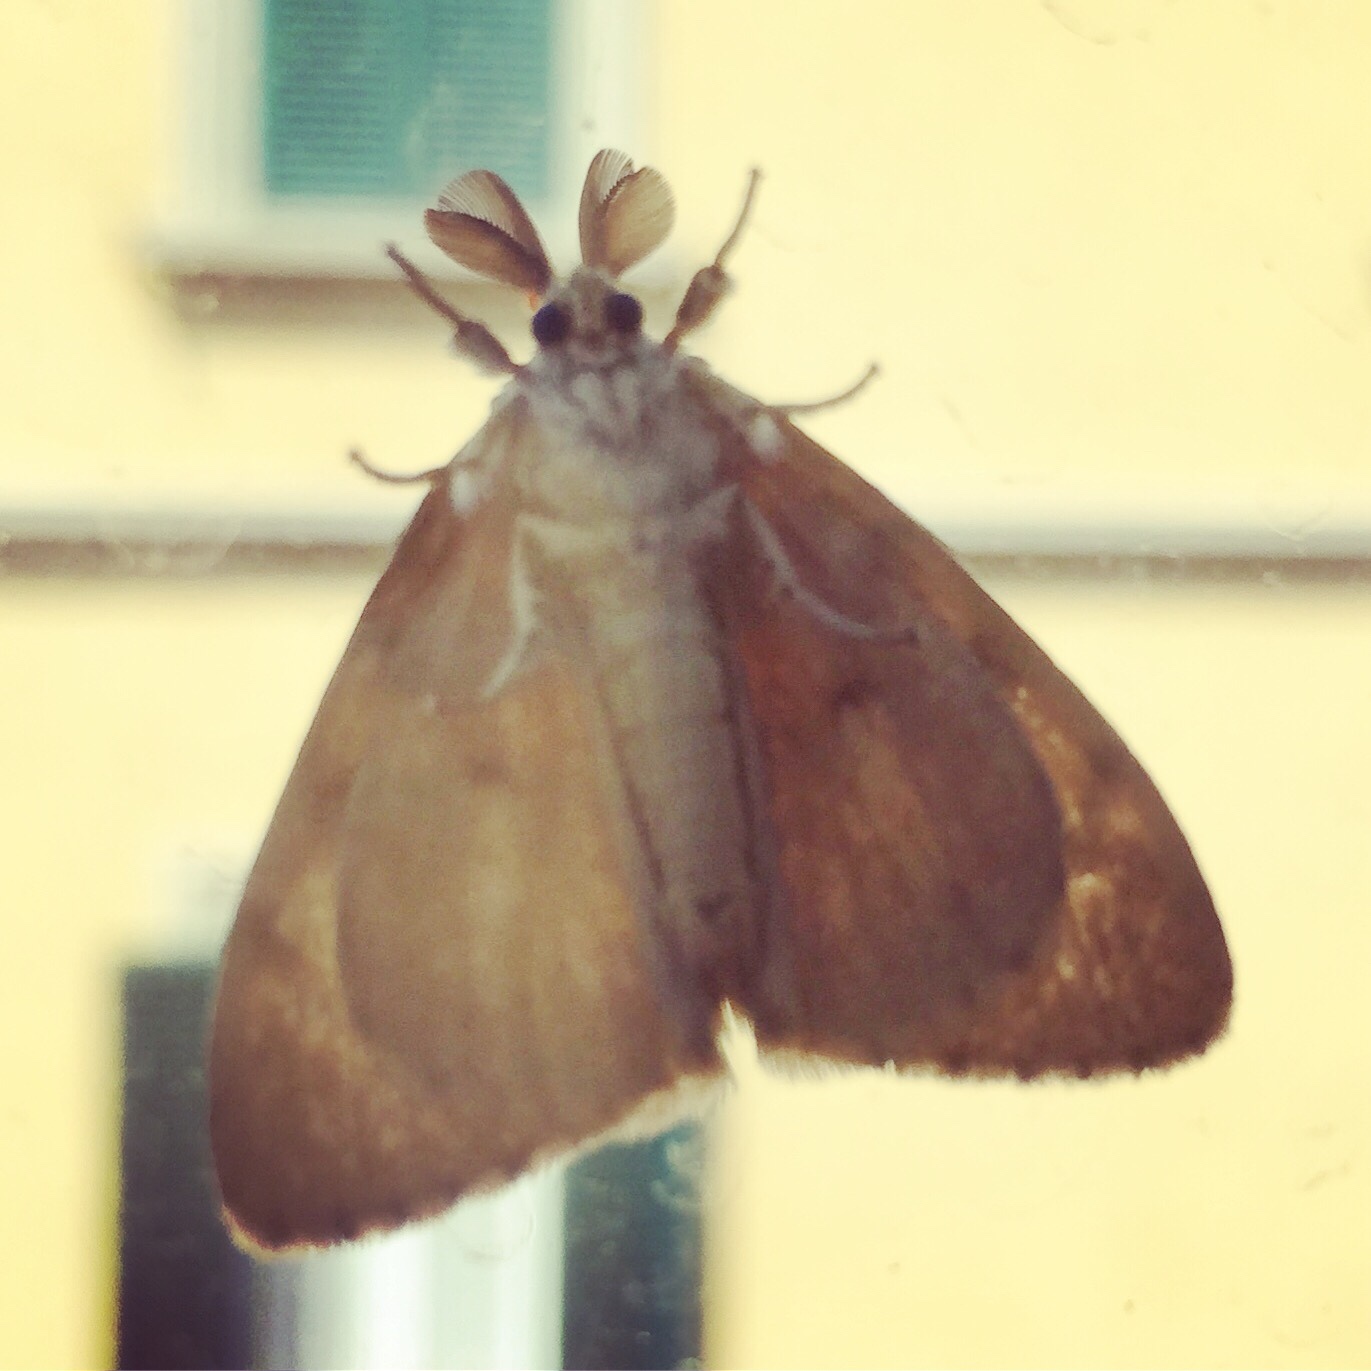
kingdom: Animalia
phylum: Arthropoda
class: Insecta
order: Lepidoptera
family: Erebidae
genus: Lymantria
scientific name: Lymantria dispar
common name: Gypsy moth
